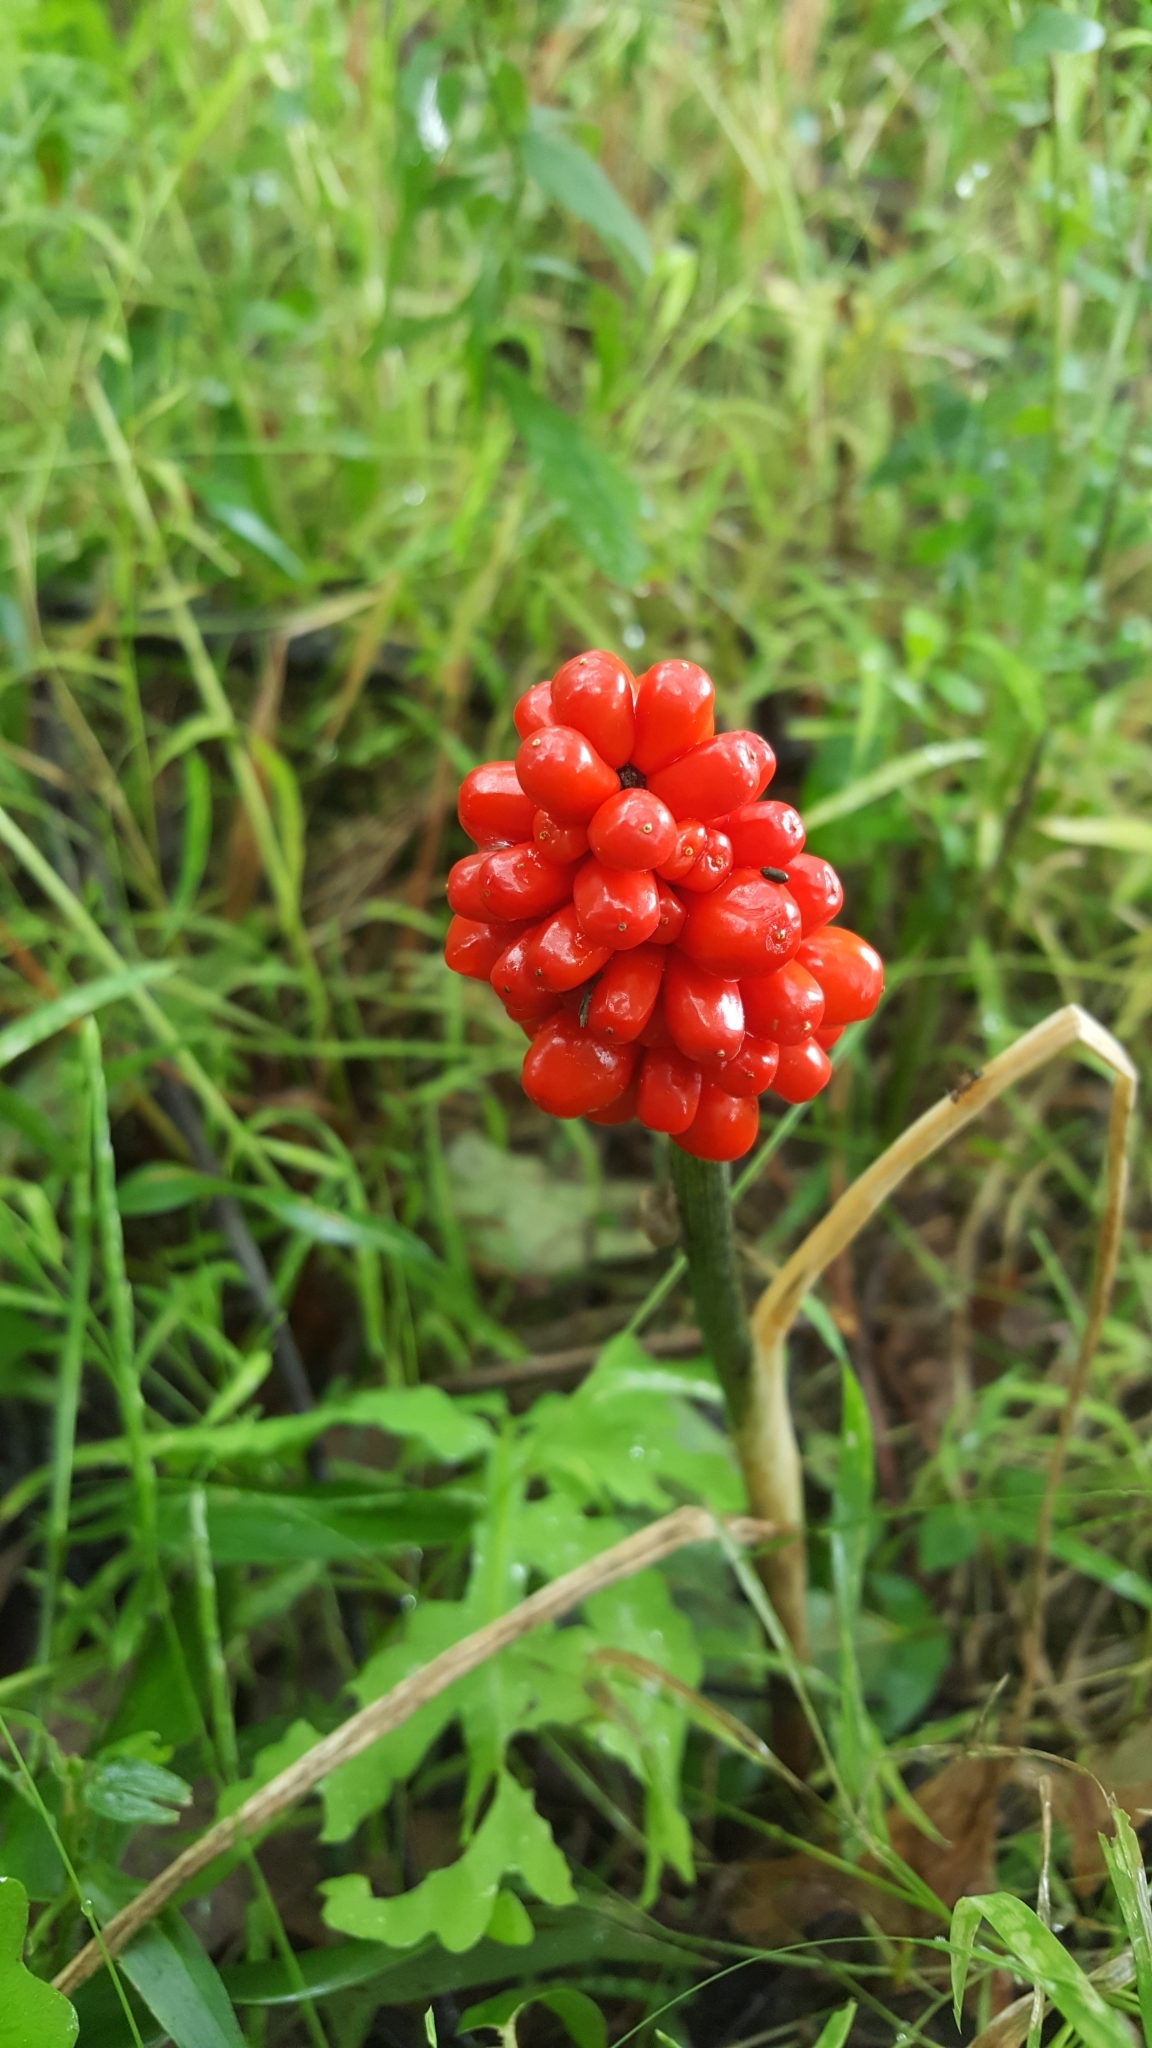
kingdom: Plantae
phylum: Tracheophyta
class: Liliopsida
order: Alismatales
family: Araceae
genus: Arisaema
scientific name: Arisaema triphyllum
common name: Jack-in-the-pulpit
